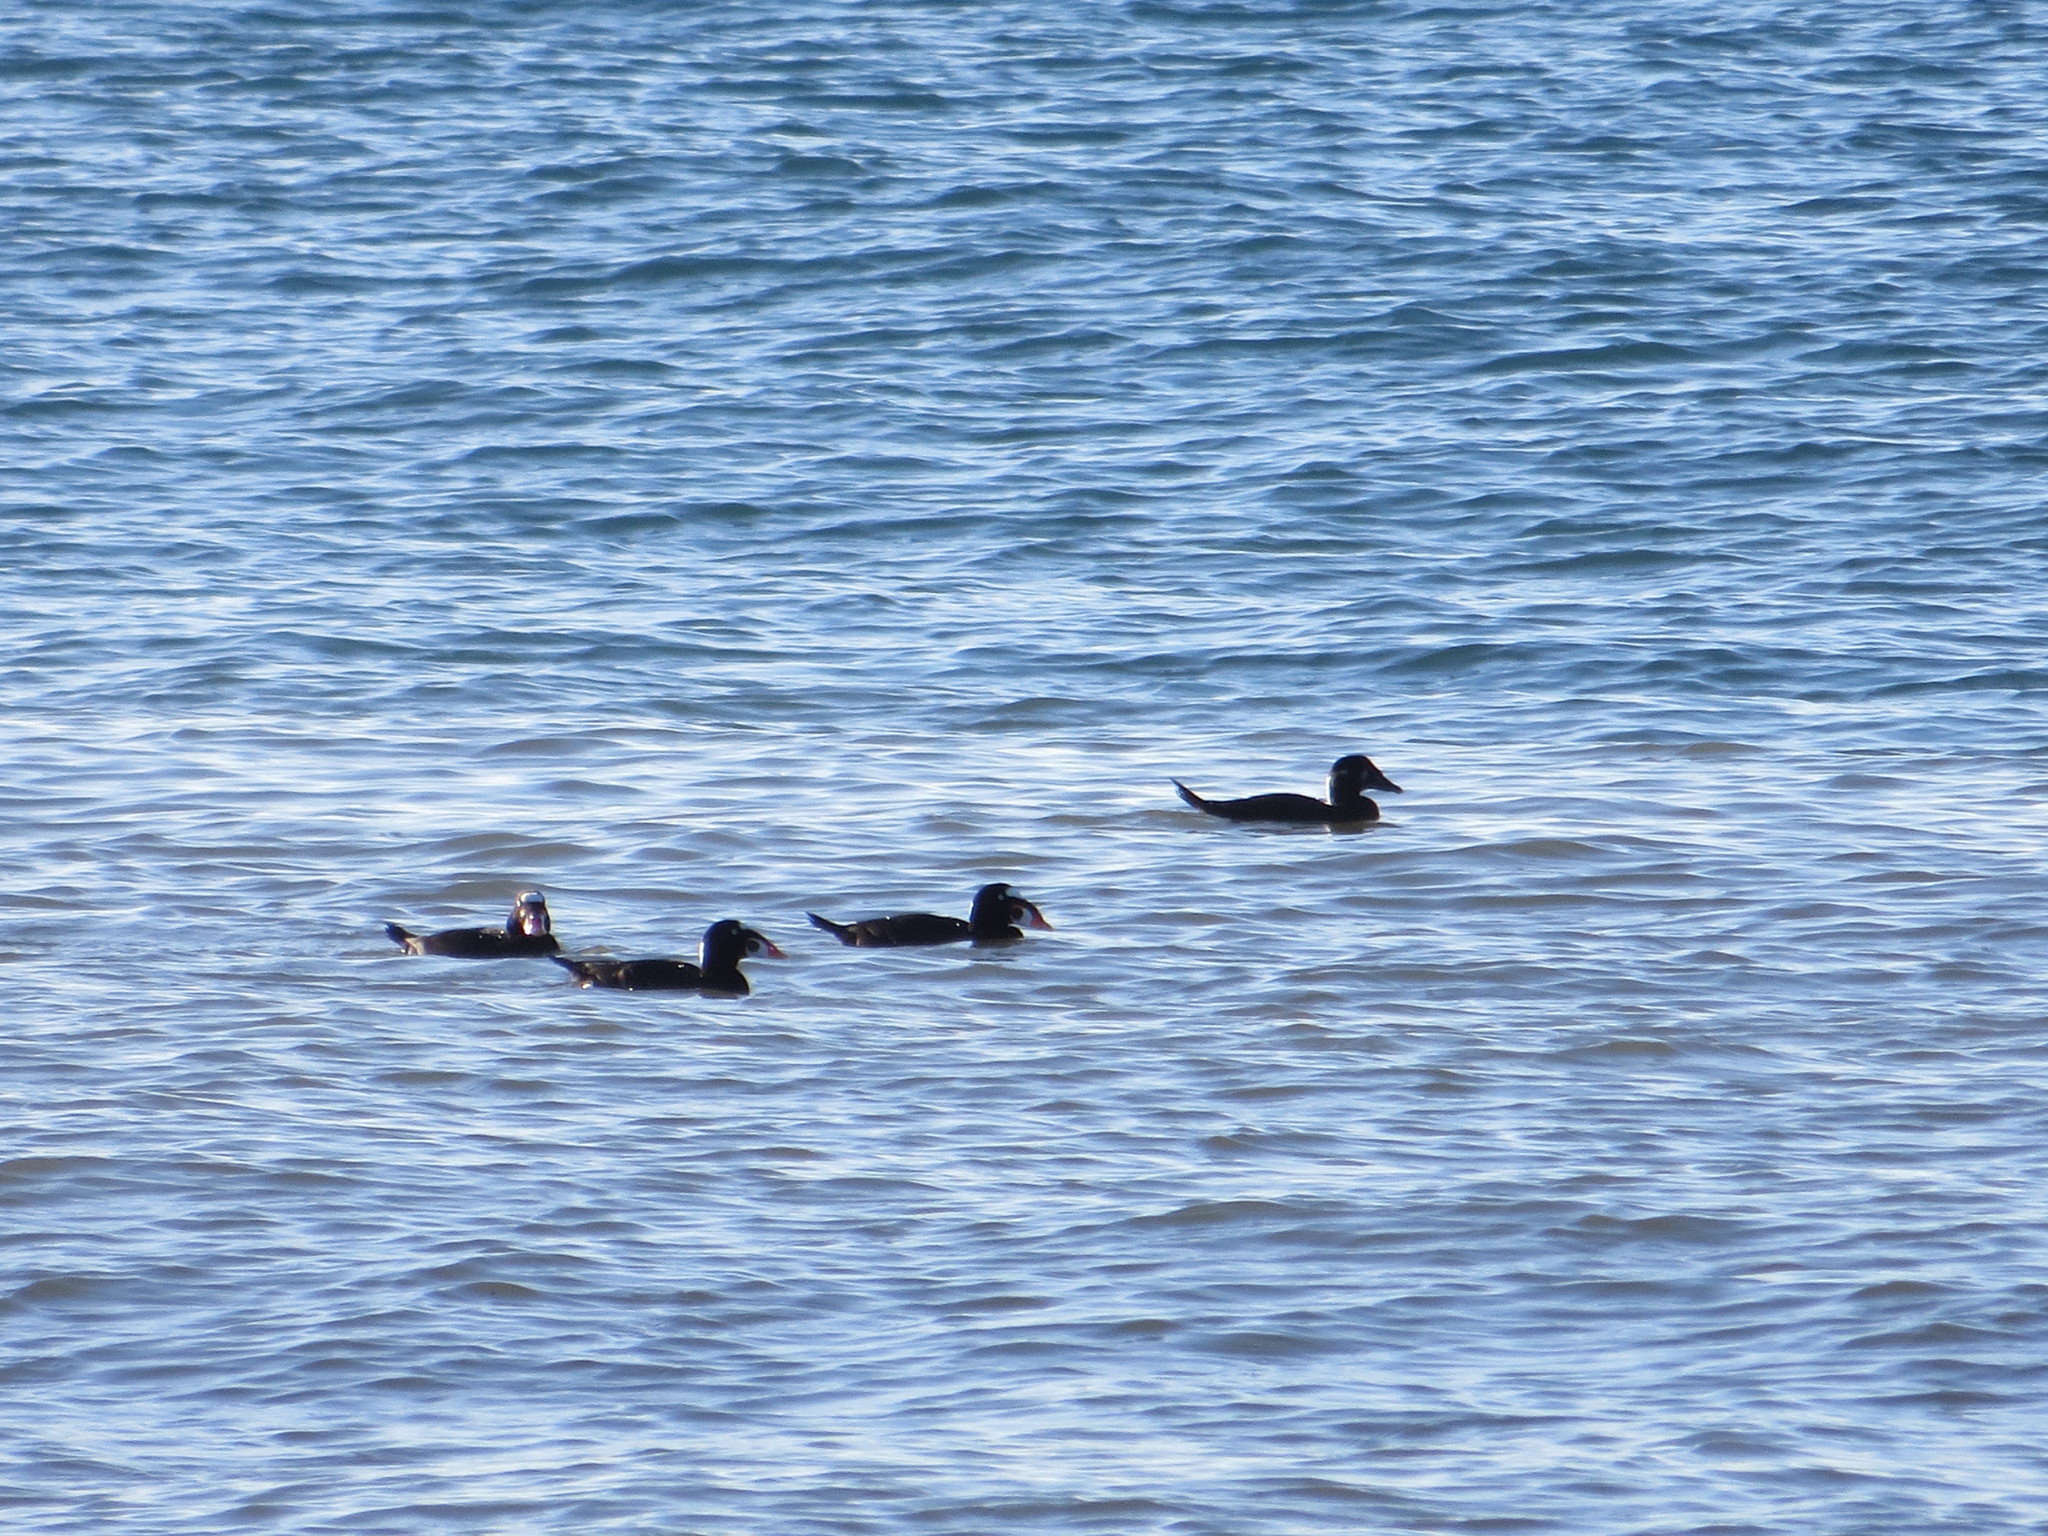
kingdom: Animalia
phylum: Chordata
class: Aves
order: Anseriformes
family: Anatidae
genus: Melanitta
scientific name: Melanitta perspicillata
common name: Surf scoter
